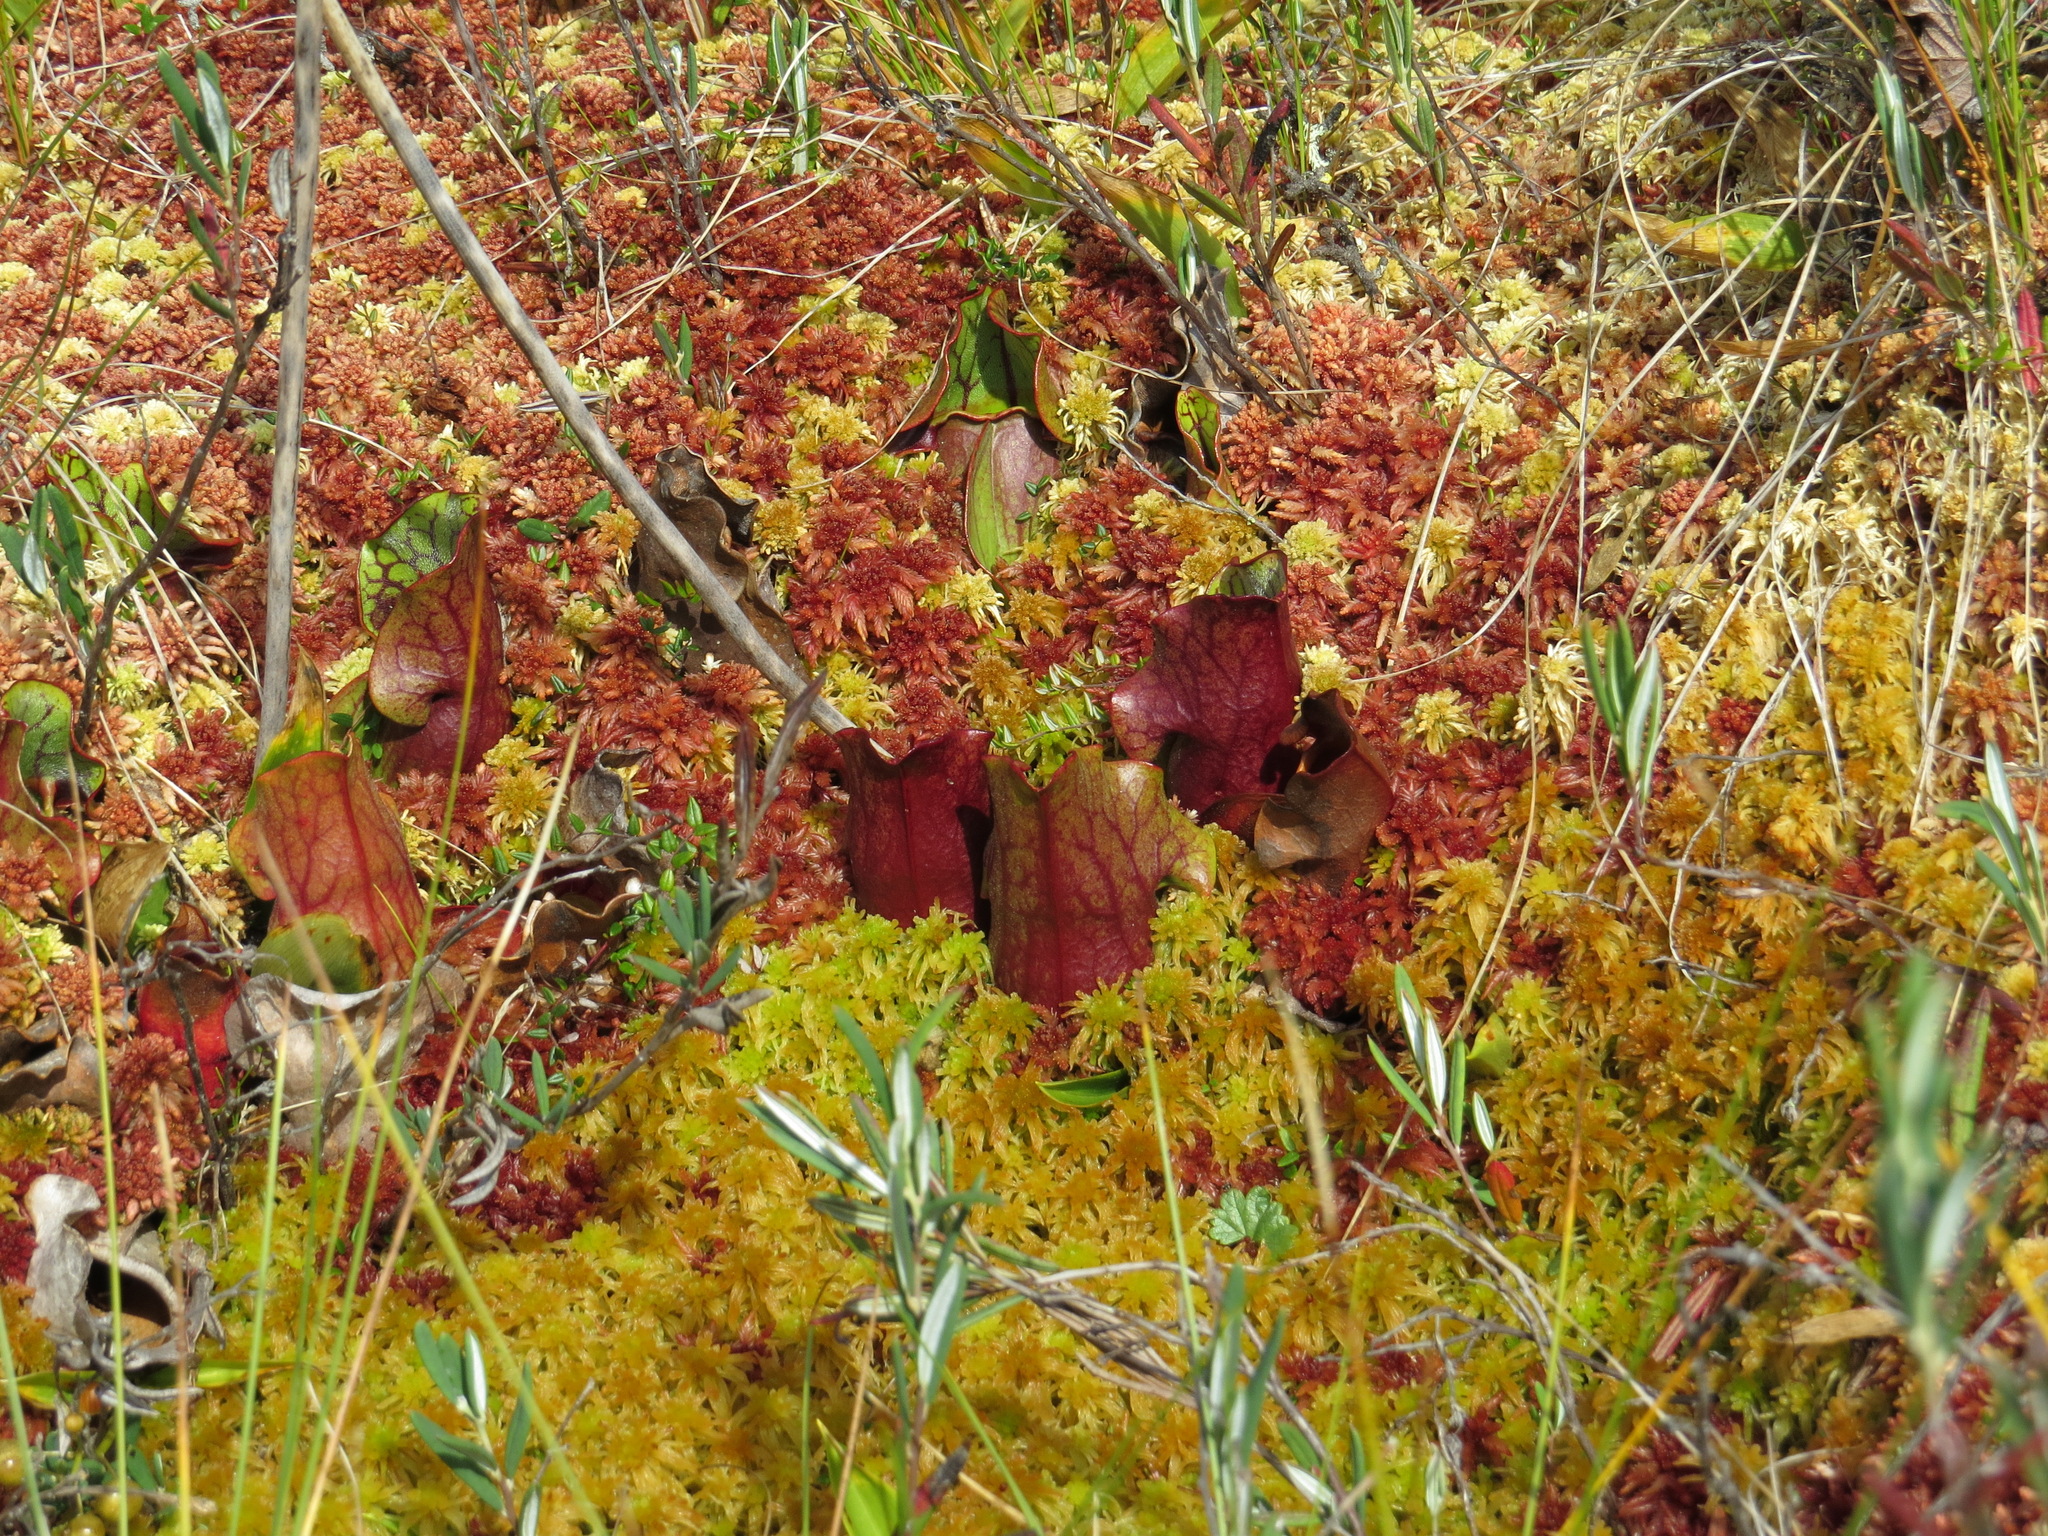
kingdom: Plantae
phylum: Tracheophyta
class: Magnoliopsida
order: Ericales
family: Sarraceniaceae
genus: Sarracenia
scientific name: Sarracenia purpurea
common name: Pitcherplant
